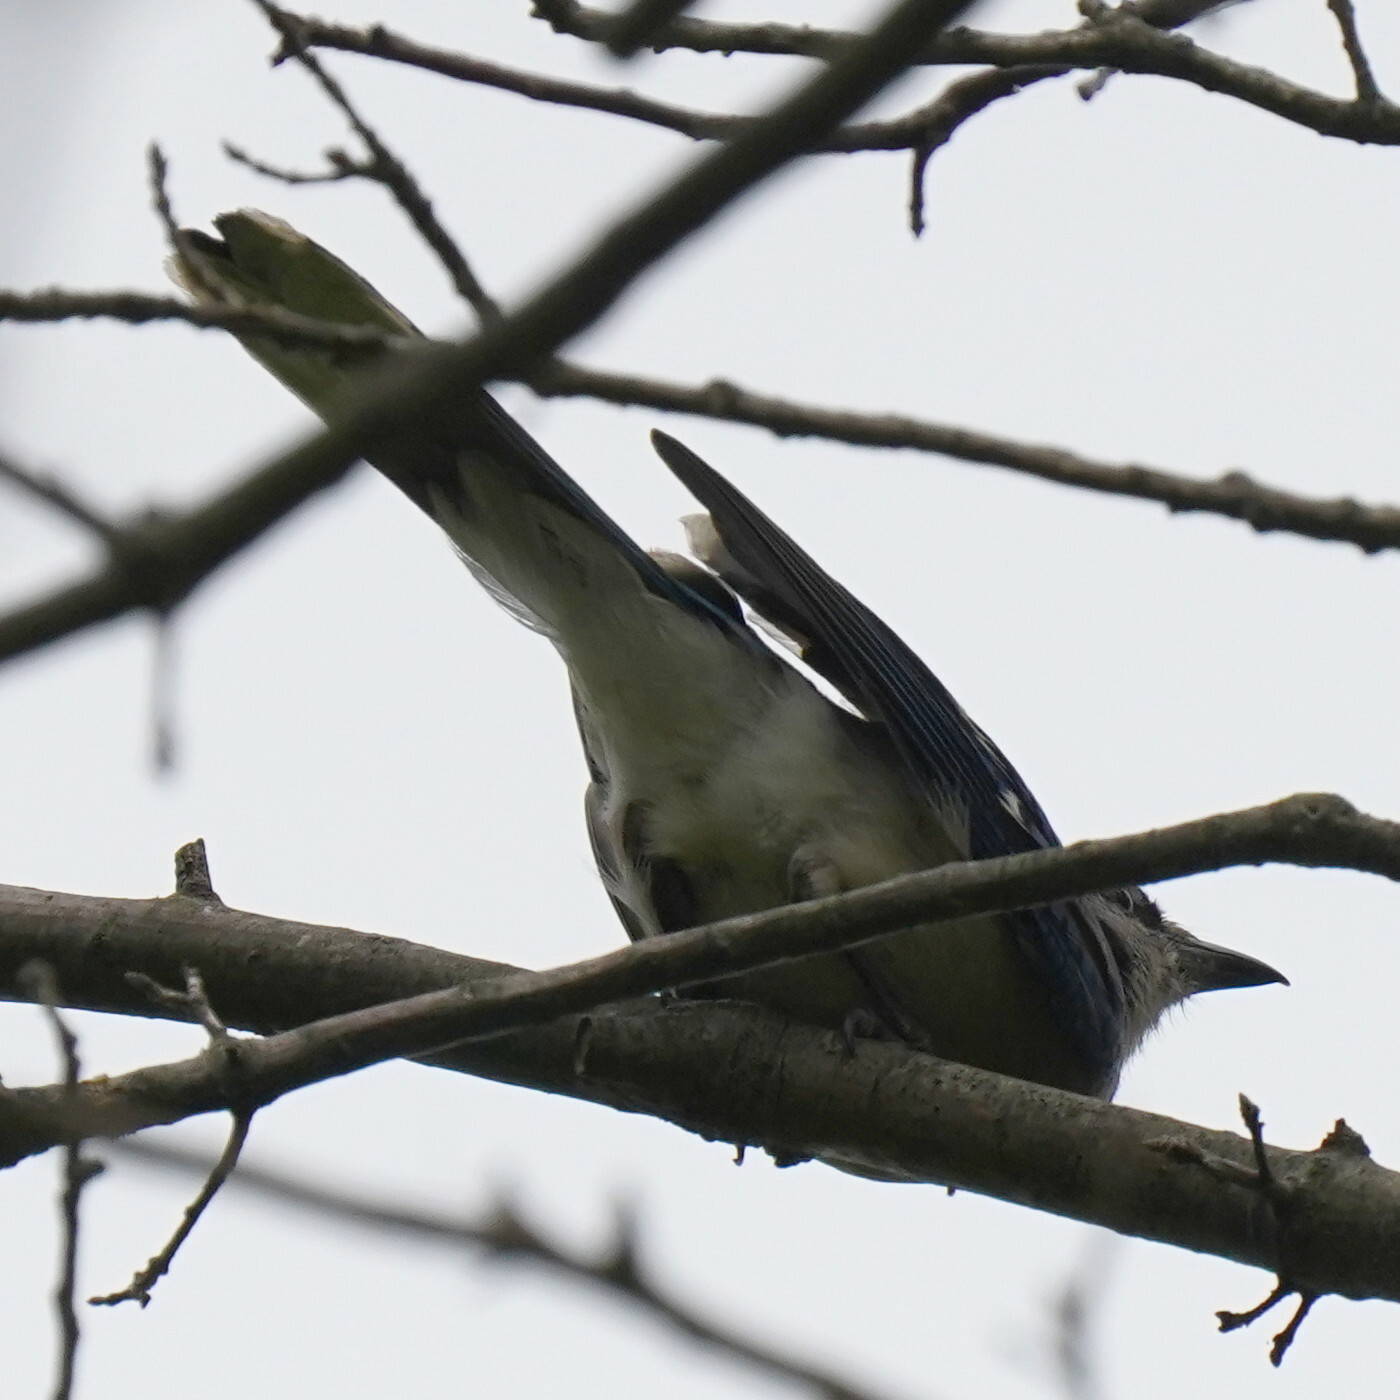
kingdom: Animalia
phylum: Chordata
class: Aves
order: Passeriformes
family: Corvidae
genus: Cyanocitta
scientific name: Cyanocitta cristata
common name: Blue jay
